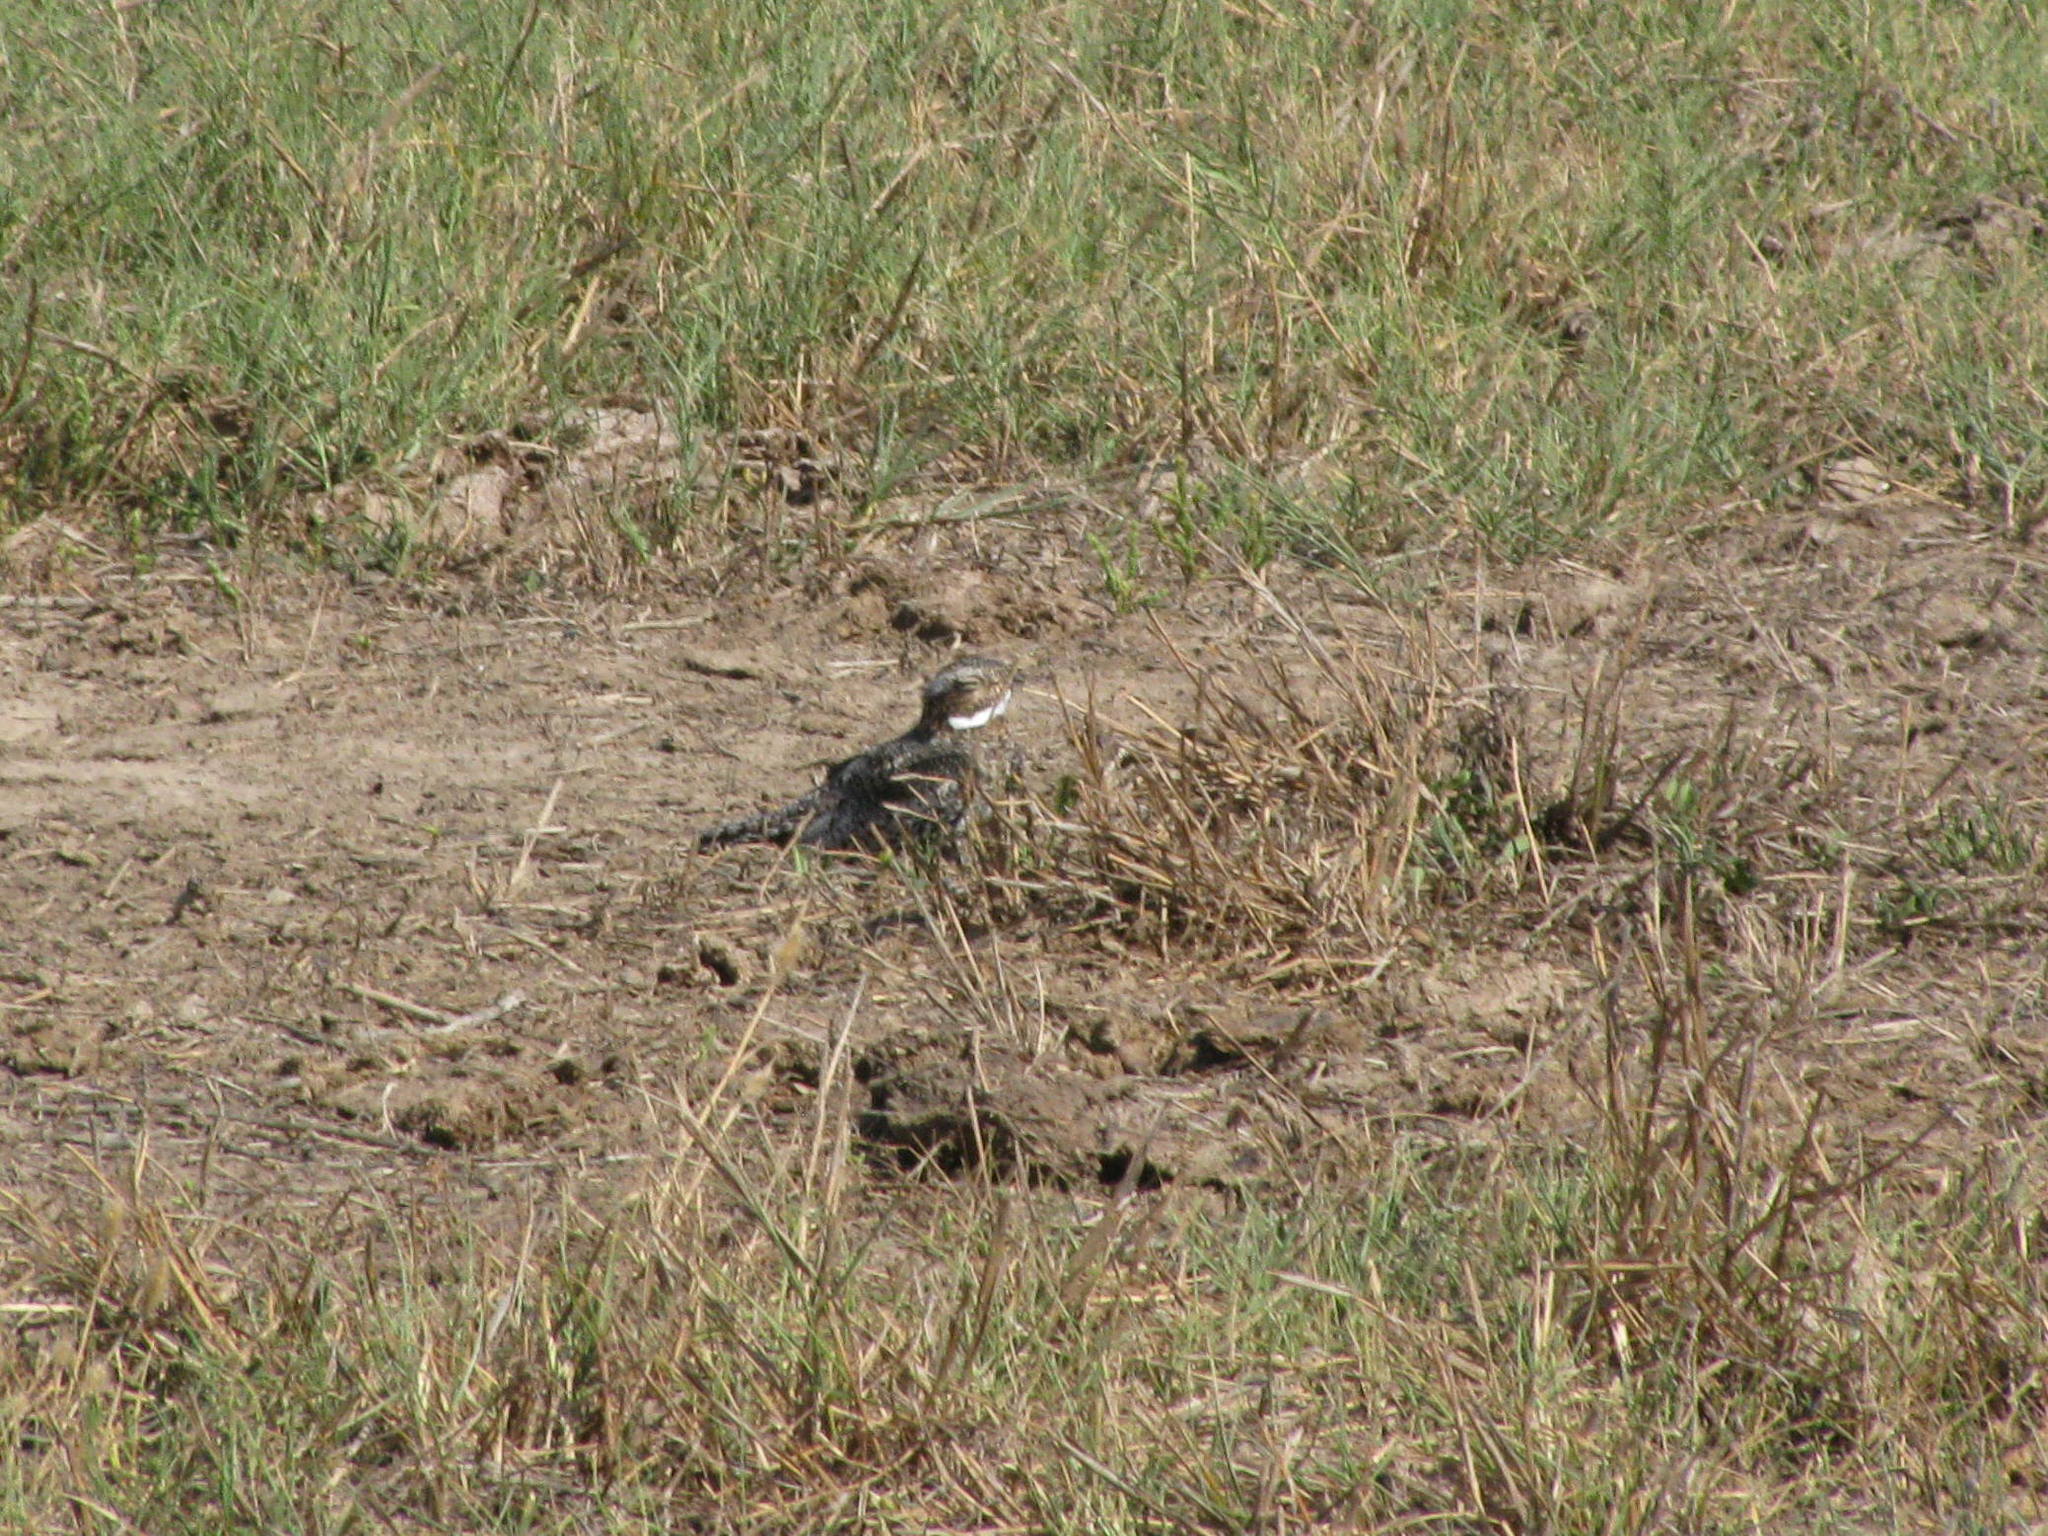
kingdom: Animalia
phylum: Chordata
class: Aves
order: Caprimulgiformes
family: Caprimulgidae
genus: Chordeiles
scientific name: Chordeiles minor
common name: Common nighthawk
